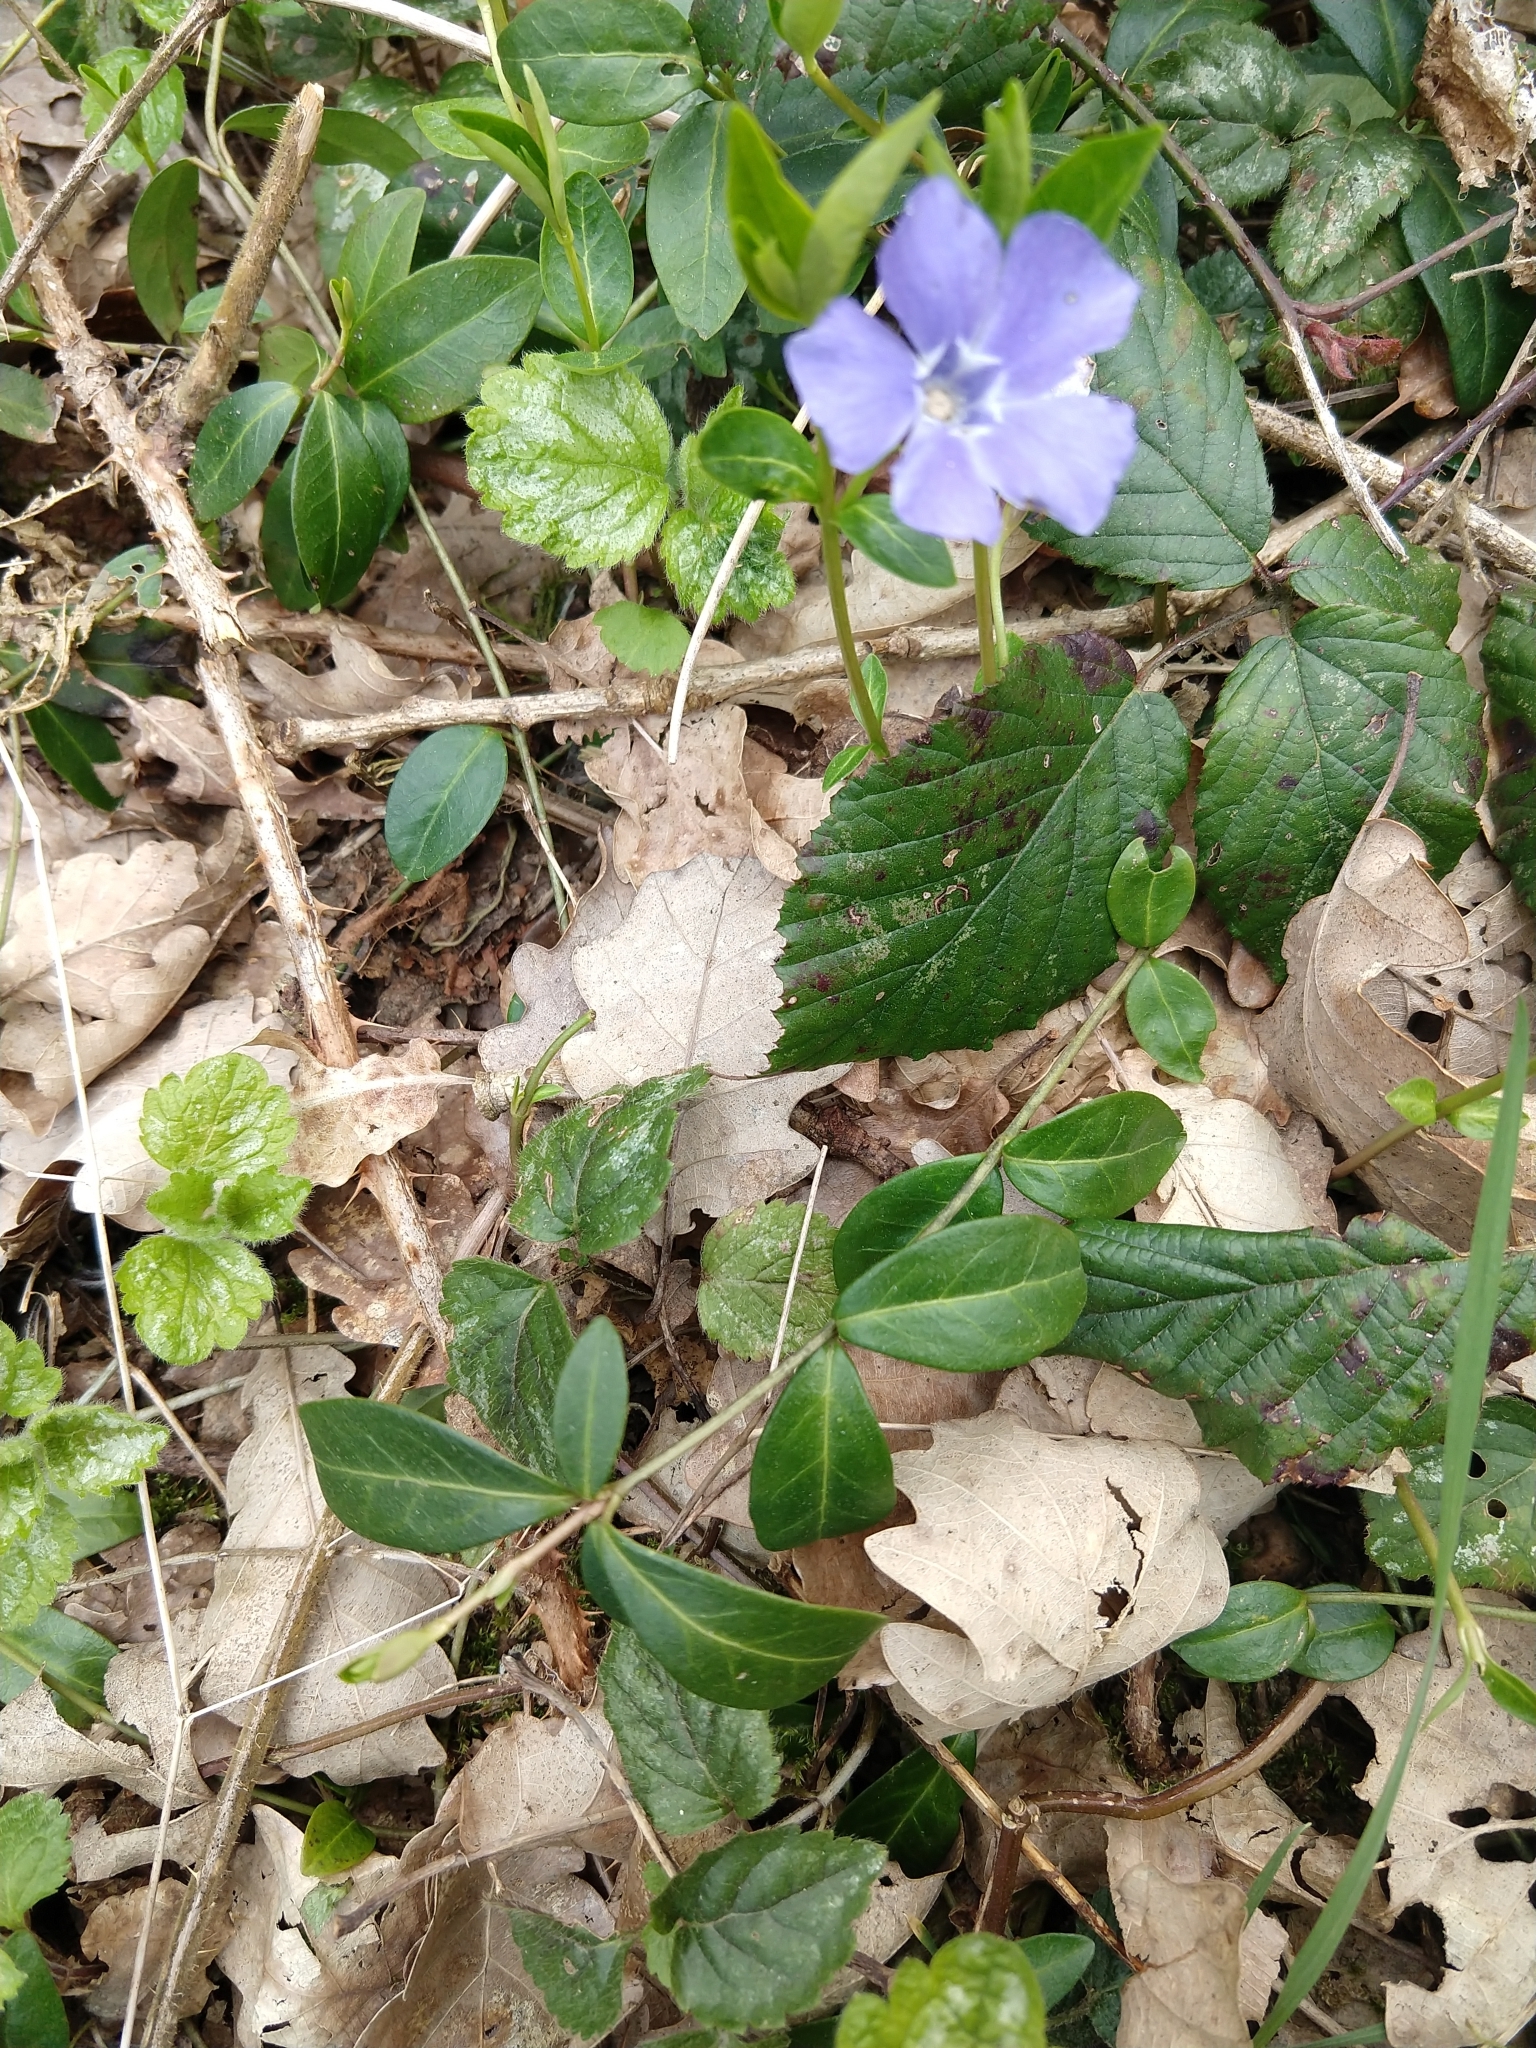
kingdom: Plantae
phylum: Tracheophyta
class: Magnoliopsida
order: Gentianales
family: Apocynaceae
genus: Vinca
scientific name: Vinca minor
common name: Lesser periwinkle
